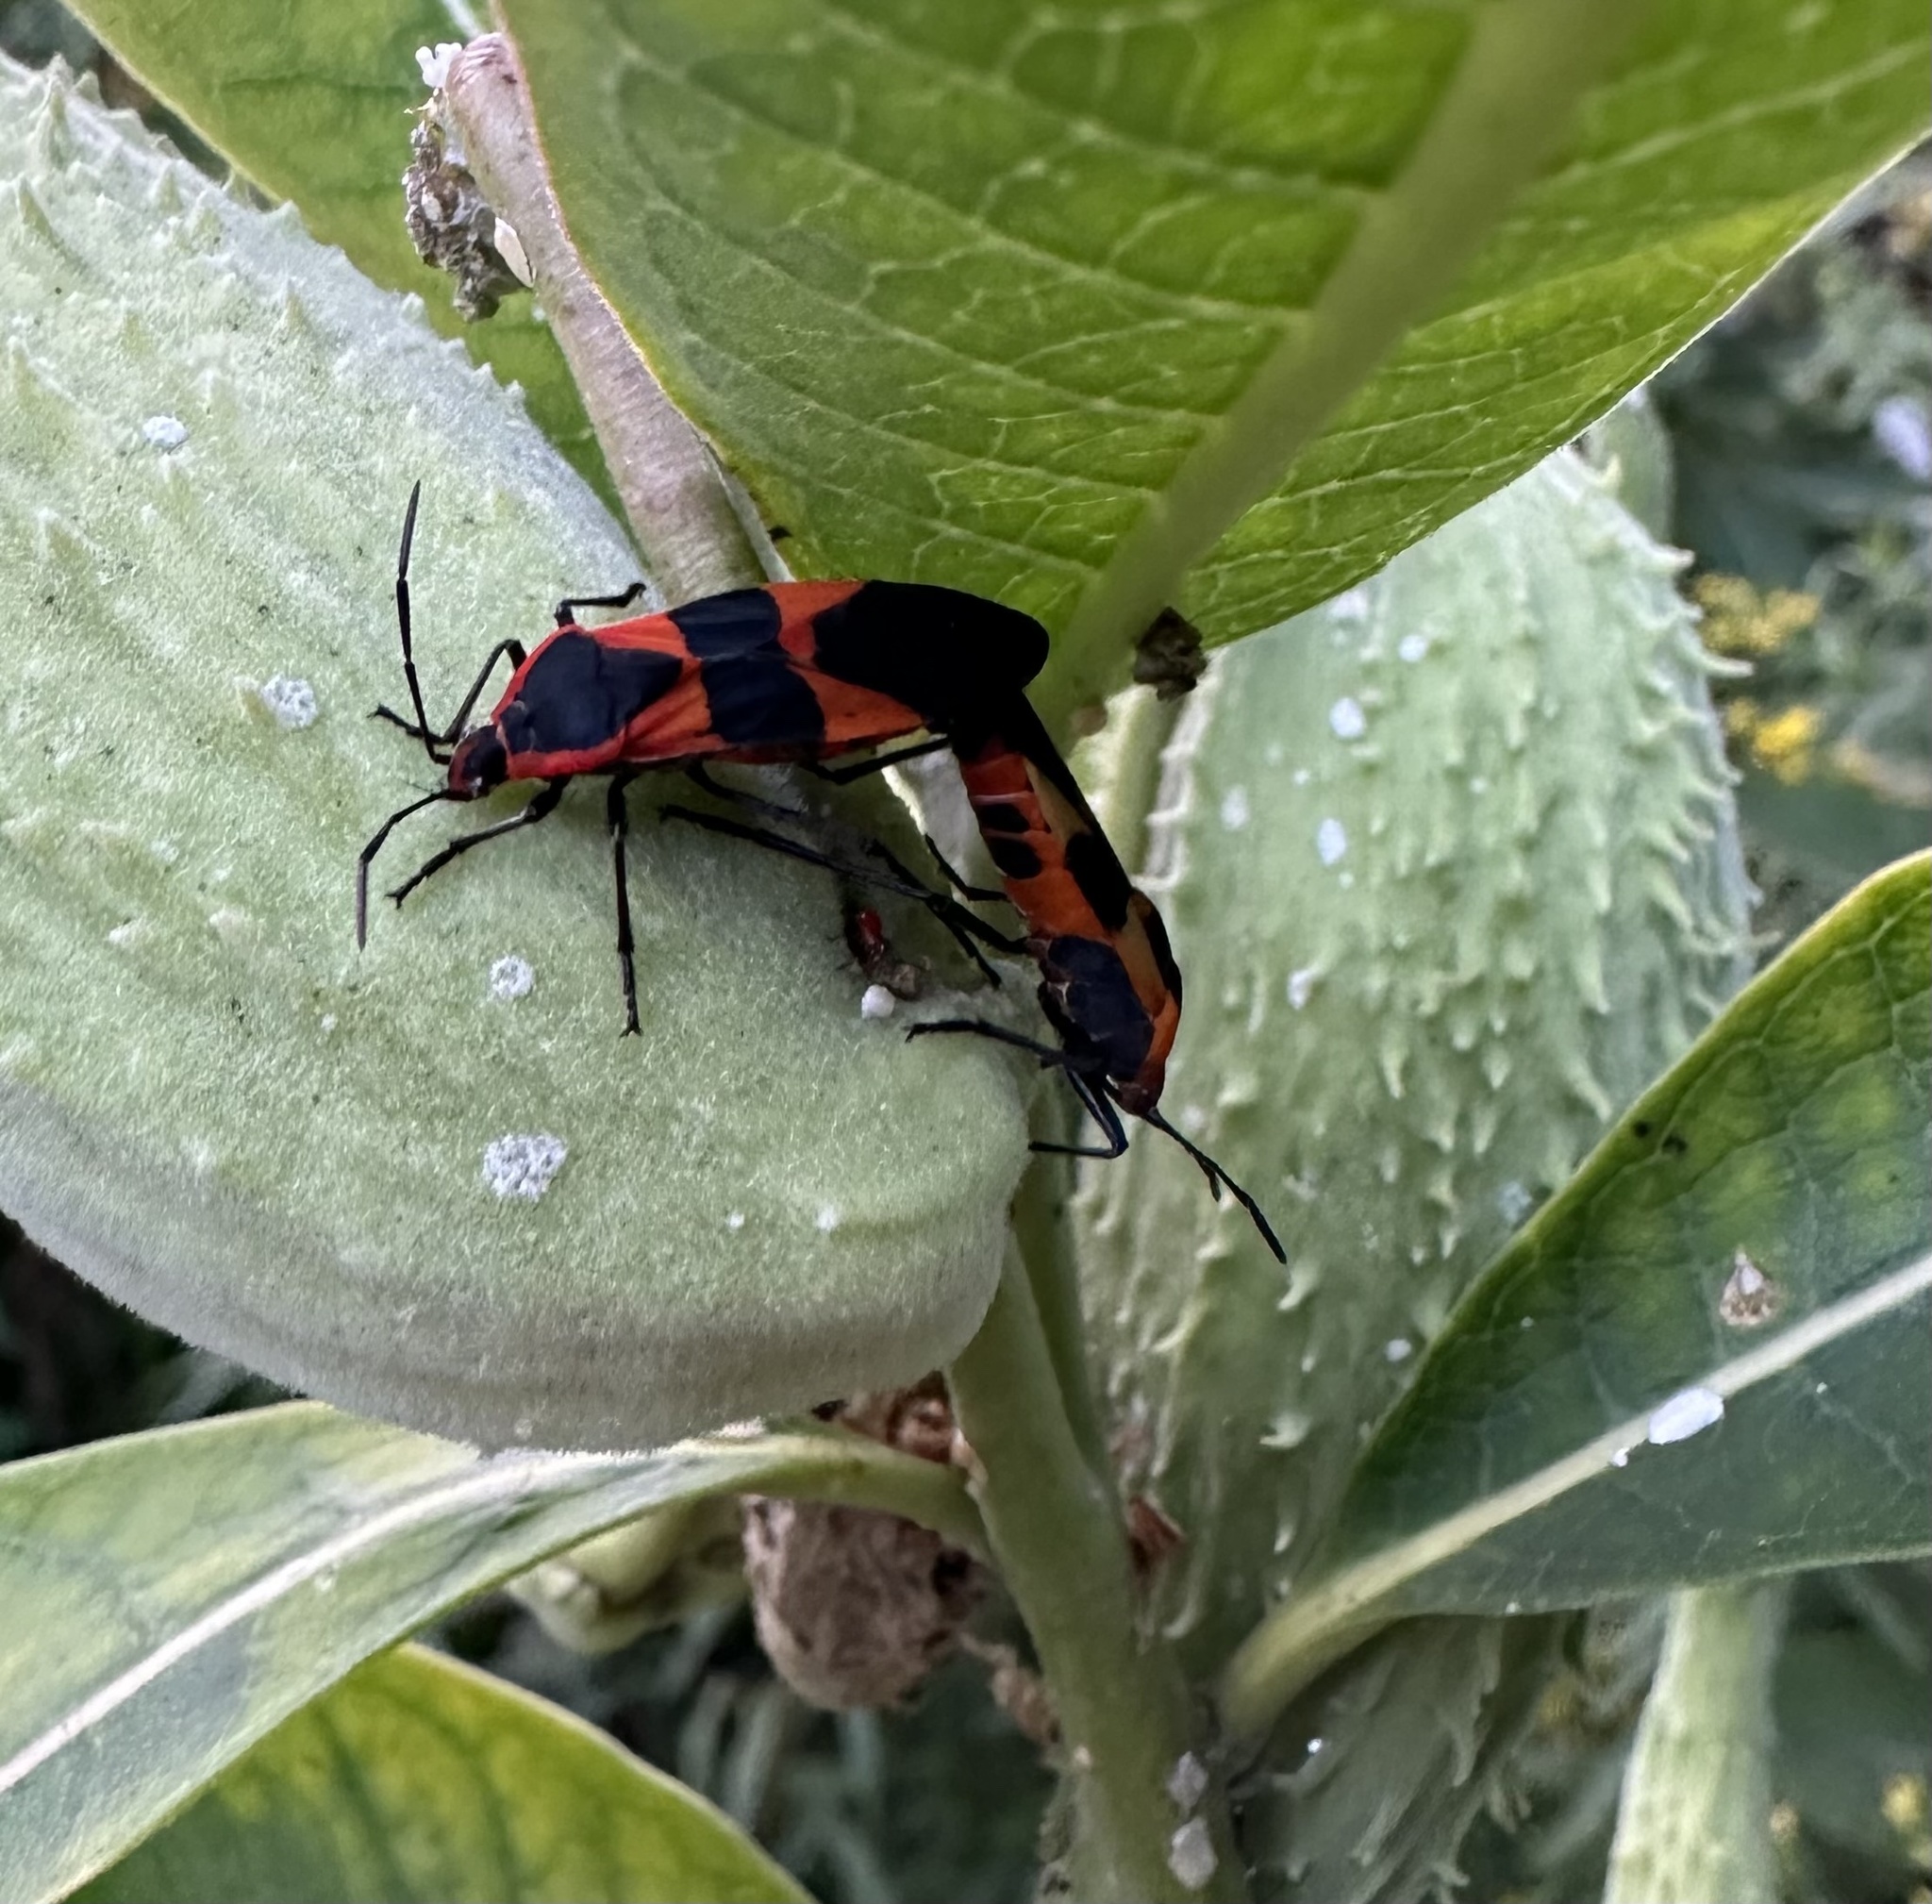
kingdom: Animalia
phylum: Arthropoda
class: Insecta
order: Hemiptera
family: Lygaeidae
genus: Oncopeltus
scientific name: Oncopeltus fasciatus
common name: Large milkweed bug
